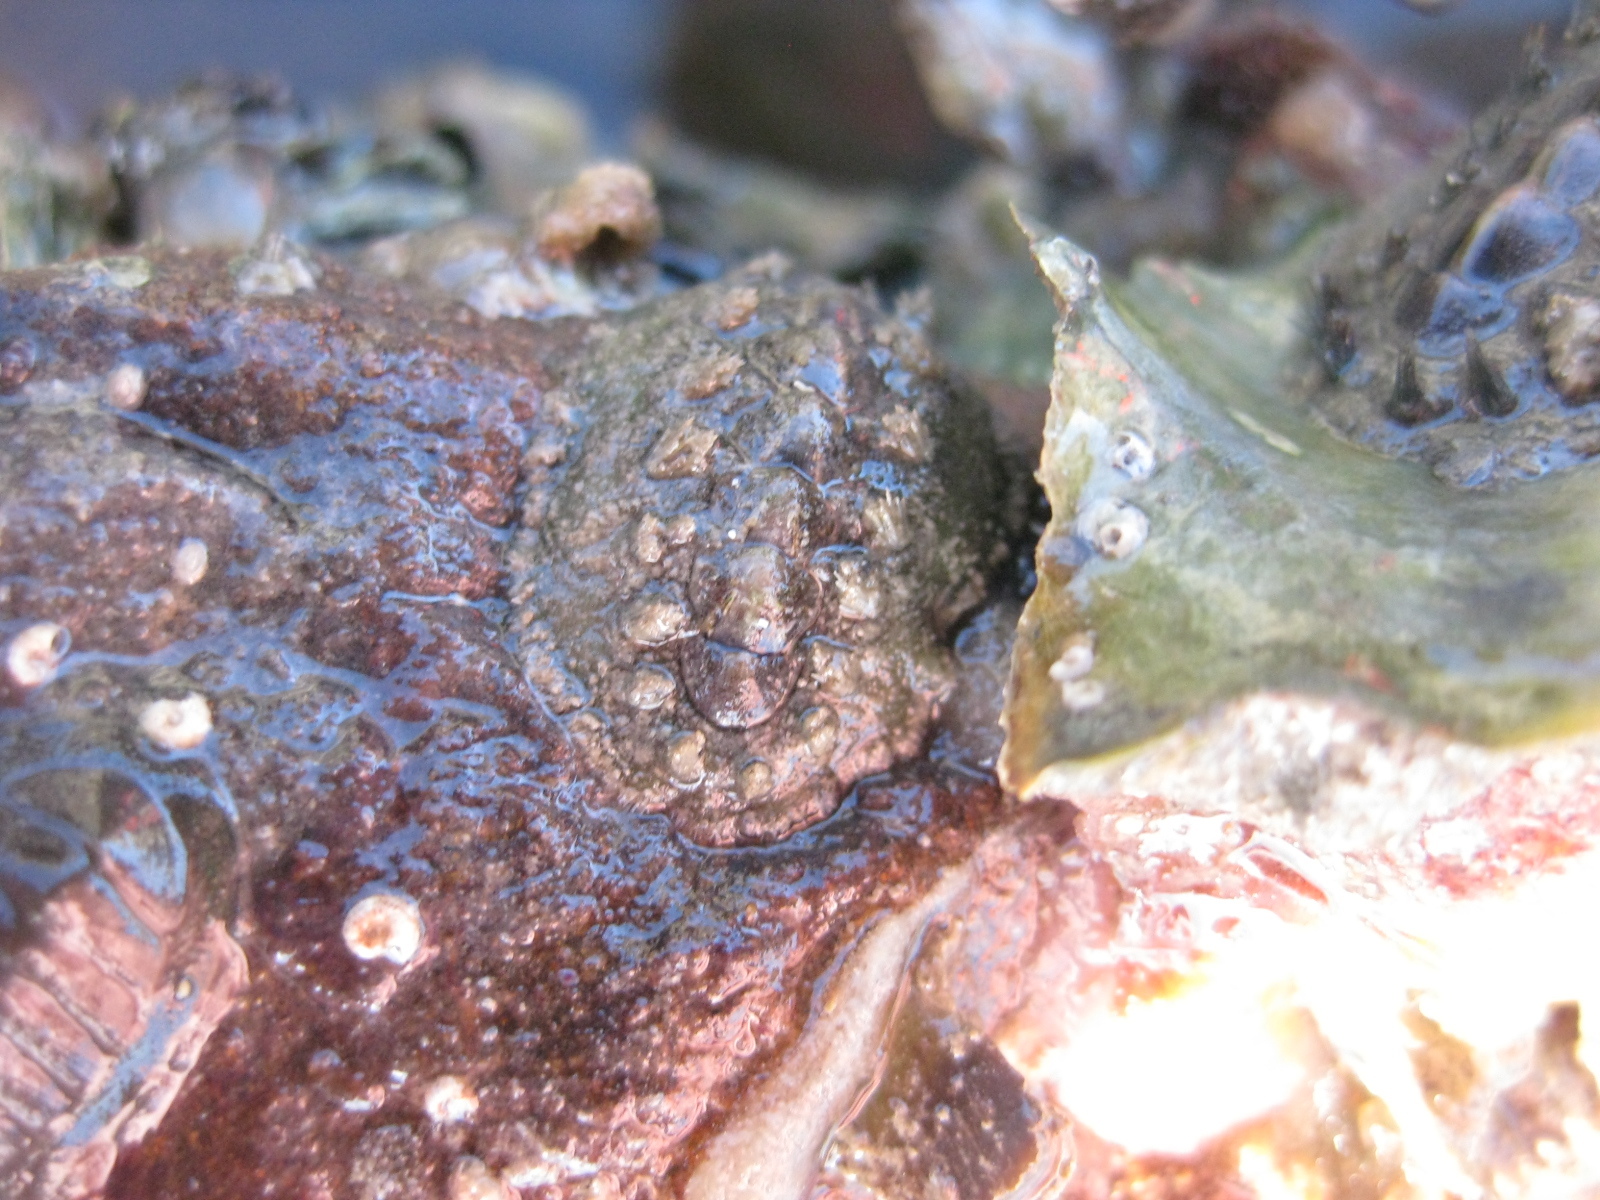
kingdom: Animalia
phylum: Mollusca
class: Polyplacophora
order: Chitonida
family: Acanthochitonidae
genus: Acanthochitona
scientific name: Acanthochitona zelandica
